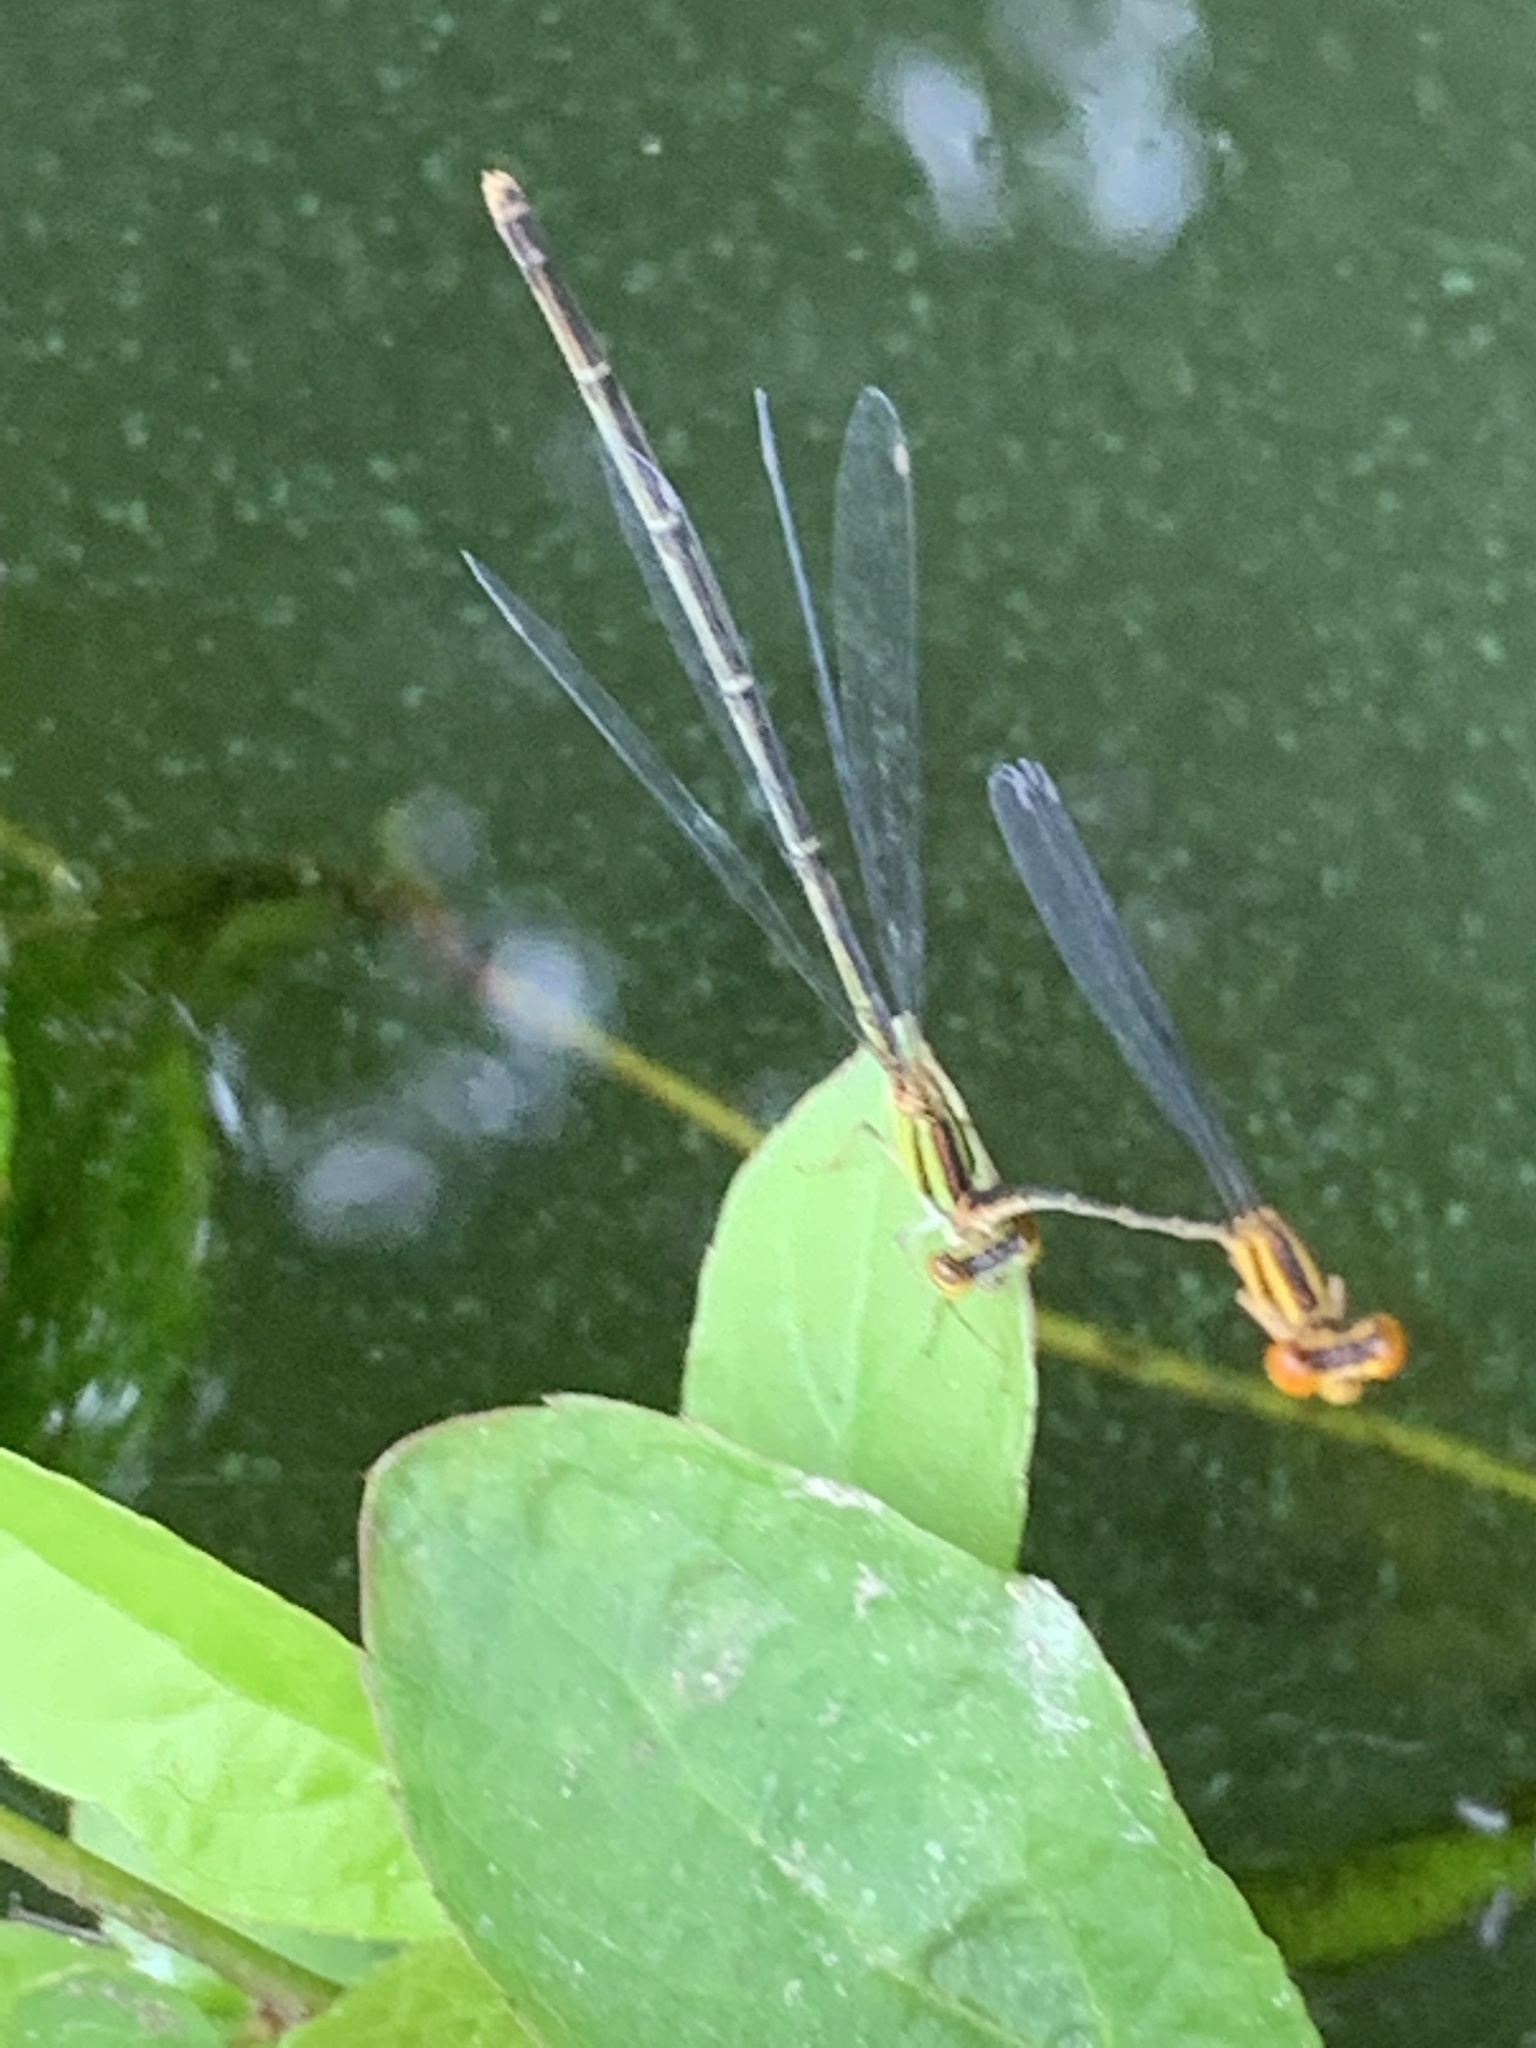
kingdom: Animalia
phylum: Arthropoda
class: Insecta
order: Odonata
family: Coenagrionidae
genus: Enallagma
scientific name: Enallagma signatum
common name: Orange bluet
